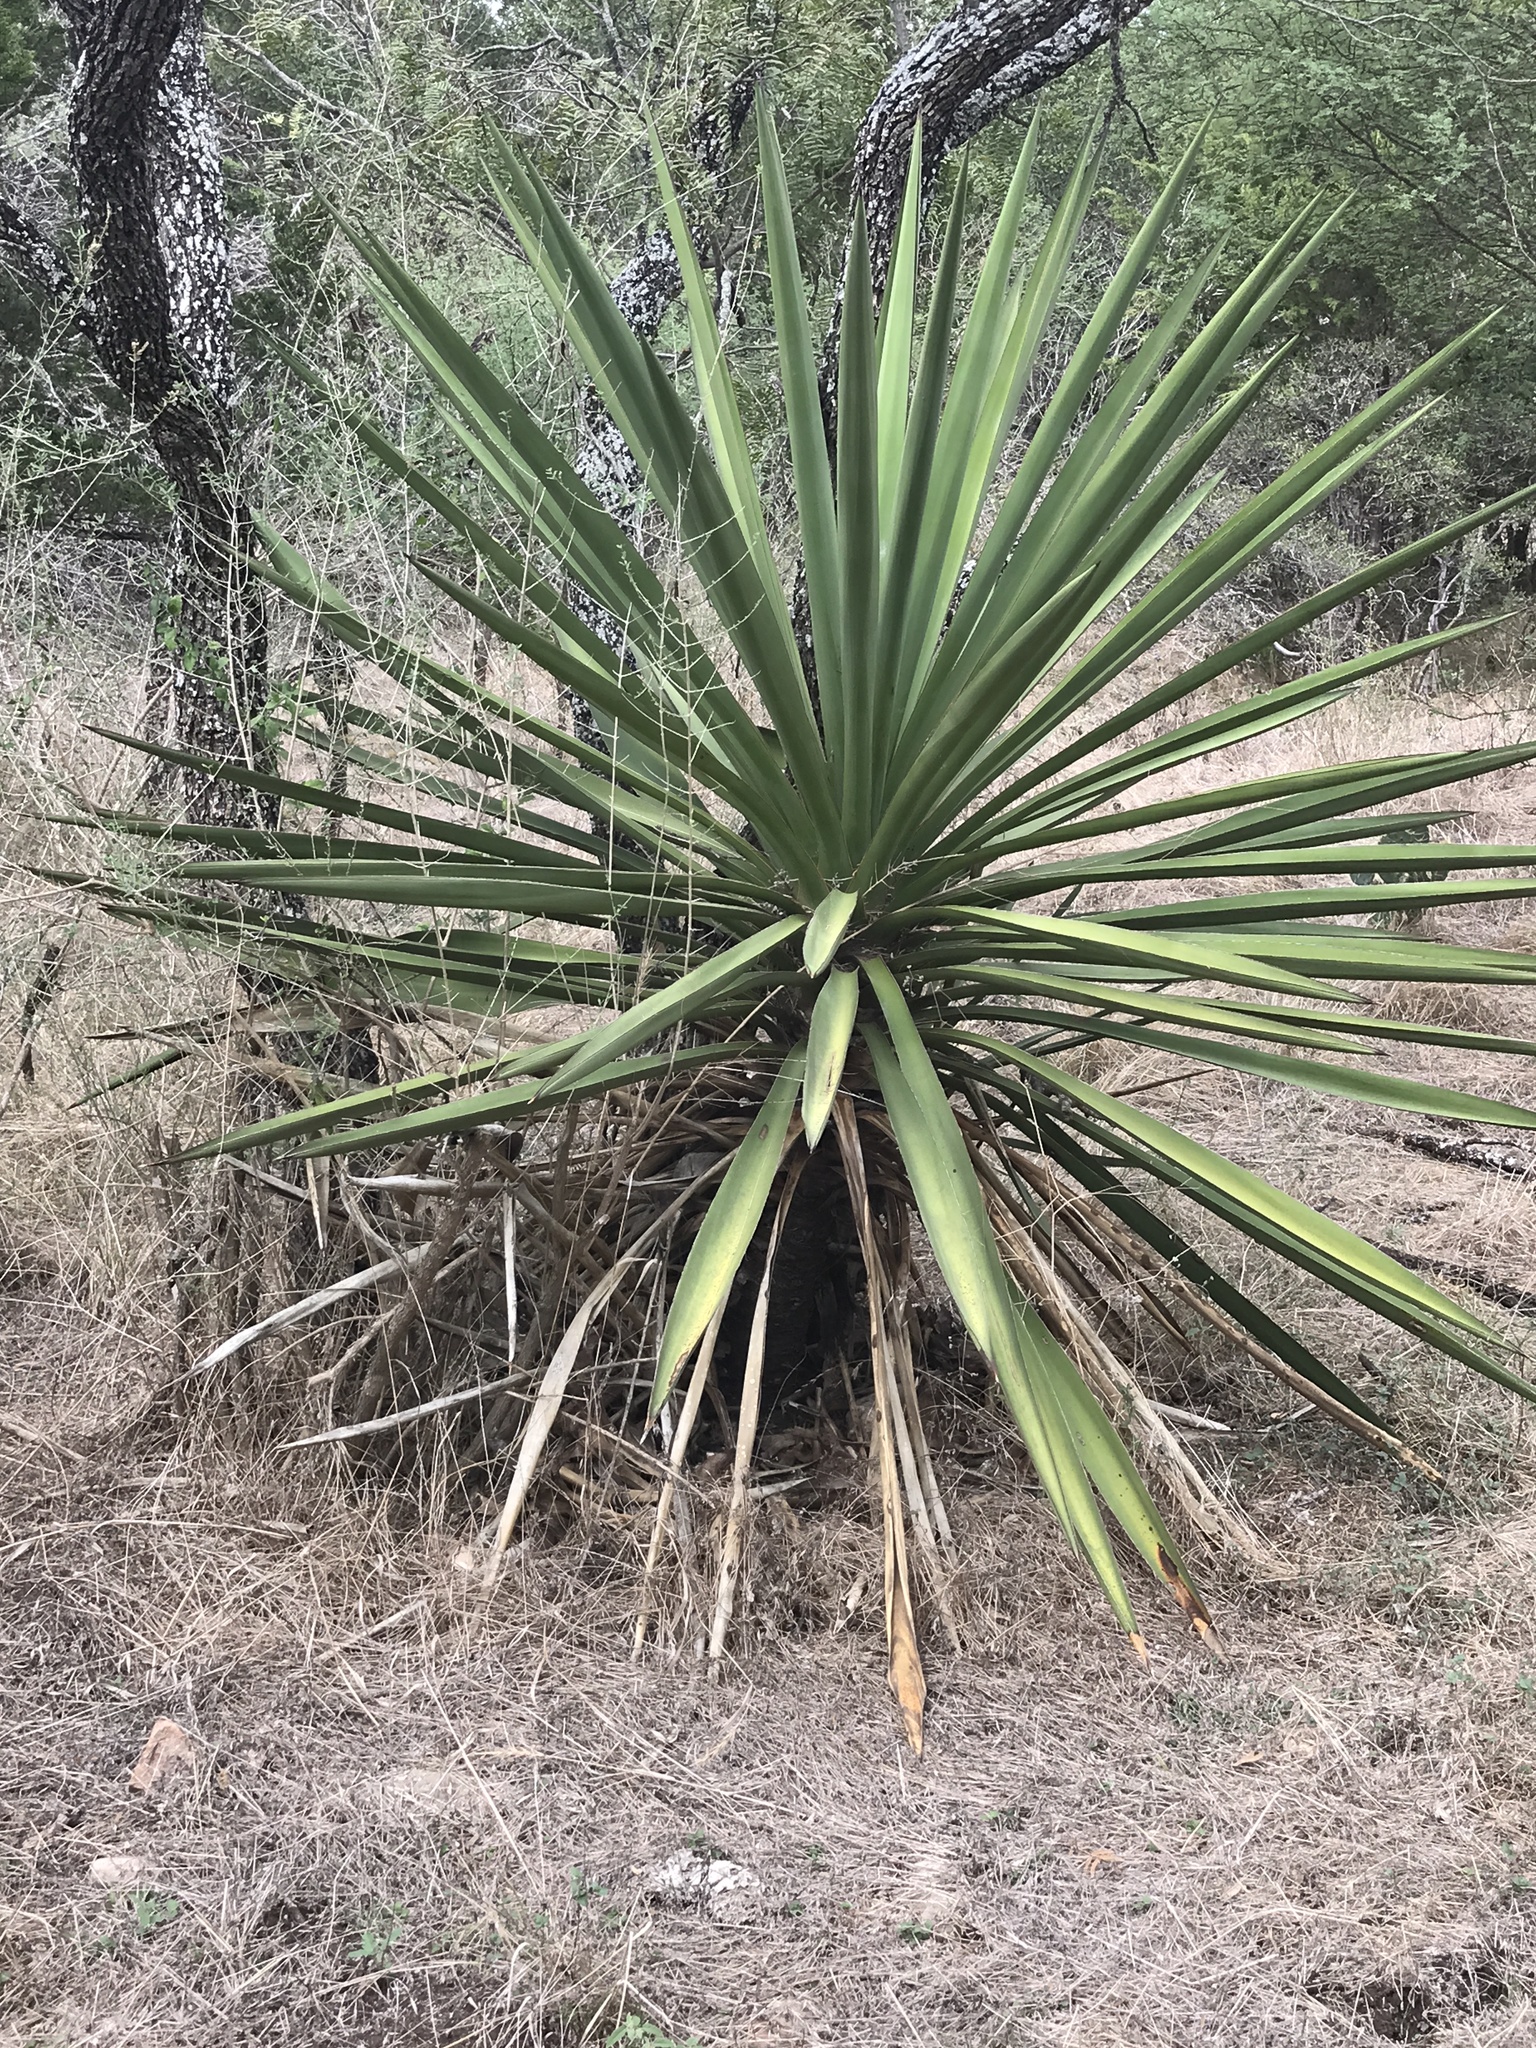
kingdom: Plantae
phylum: Tracheophyta
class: Liliopsida
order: Asparagales
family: Asparagaceae
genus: Yucca
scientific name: Yucca treculiana
